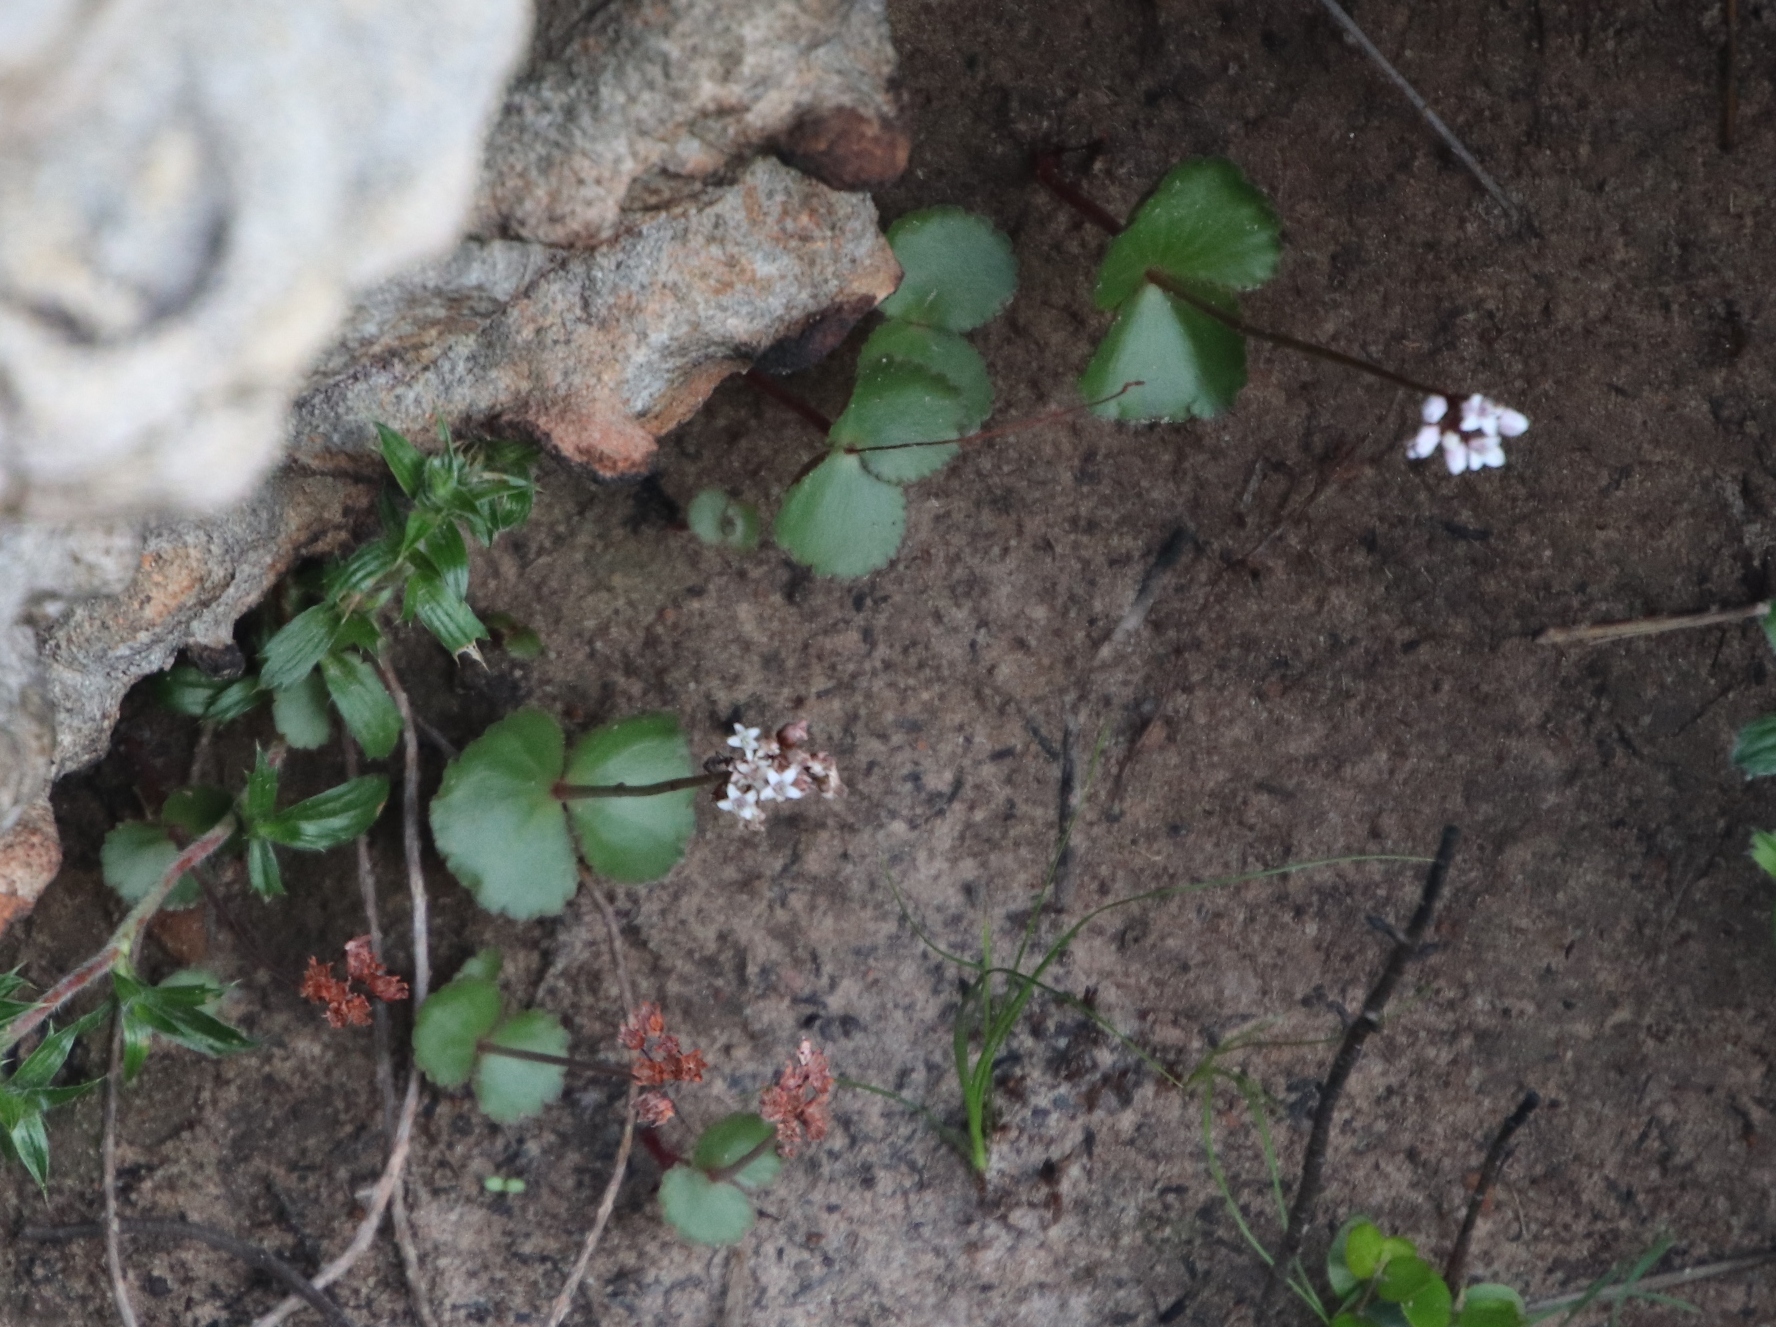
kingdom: Plantae
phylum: Tracheophyta
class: Magnoliopsida
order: Saxifragales
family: Crassulaceae
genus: Crassula
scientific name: Crassula capensis
